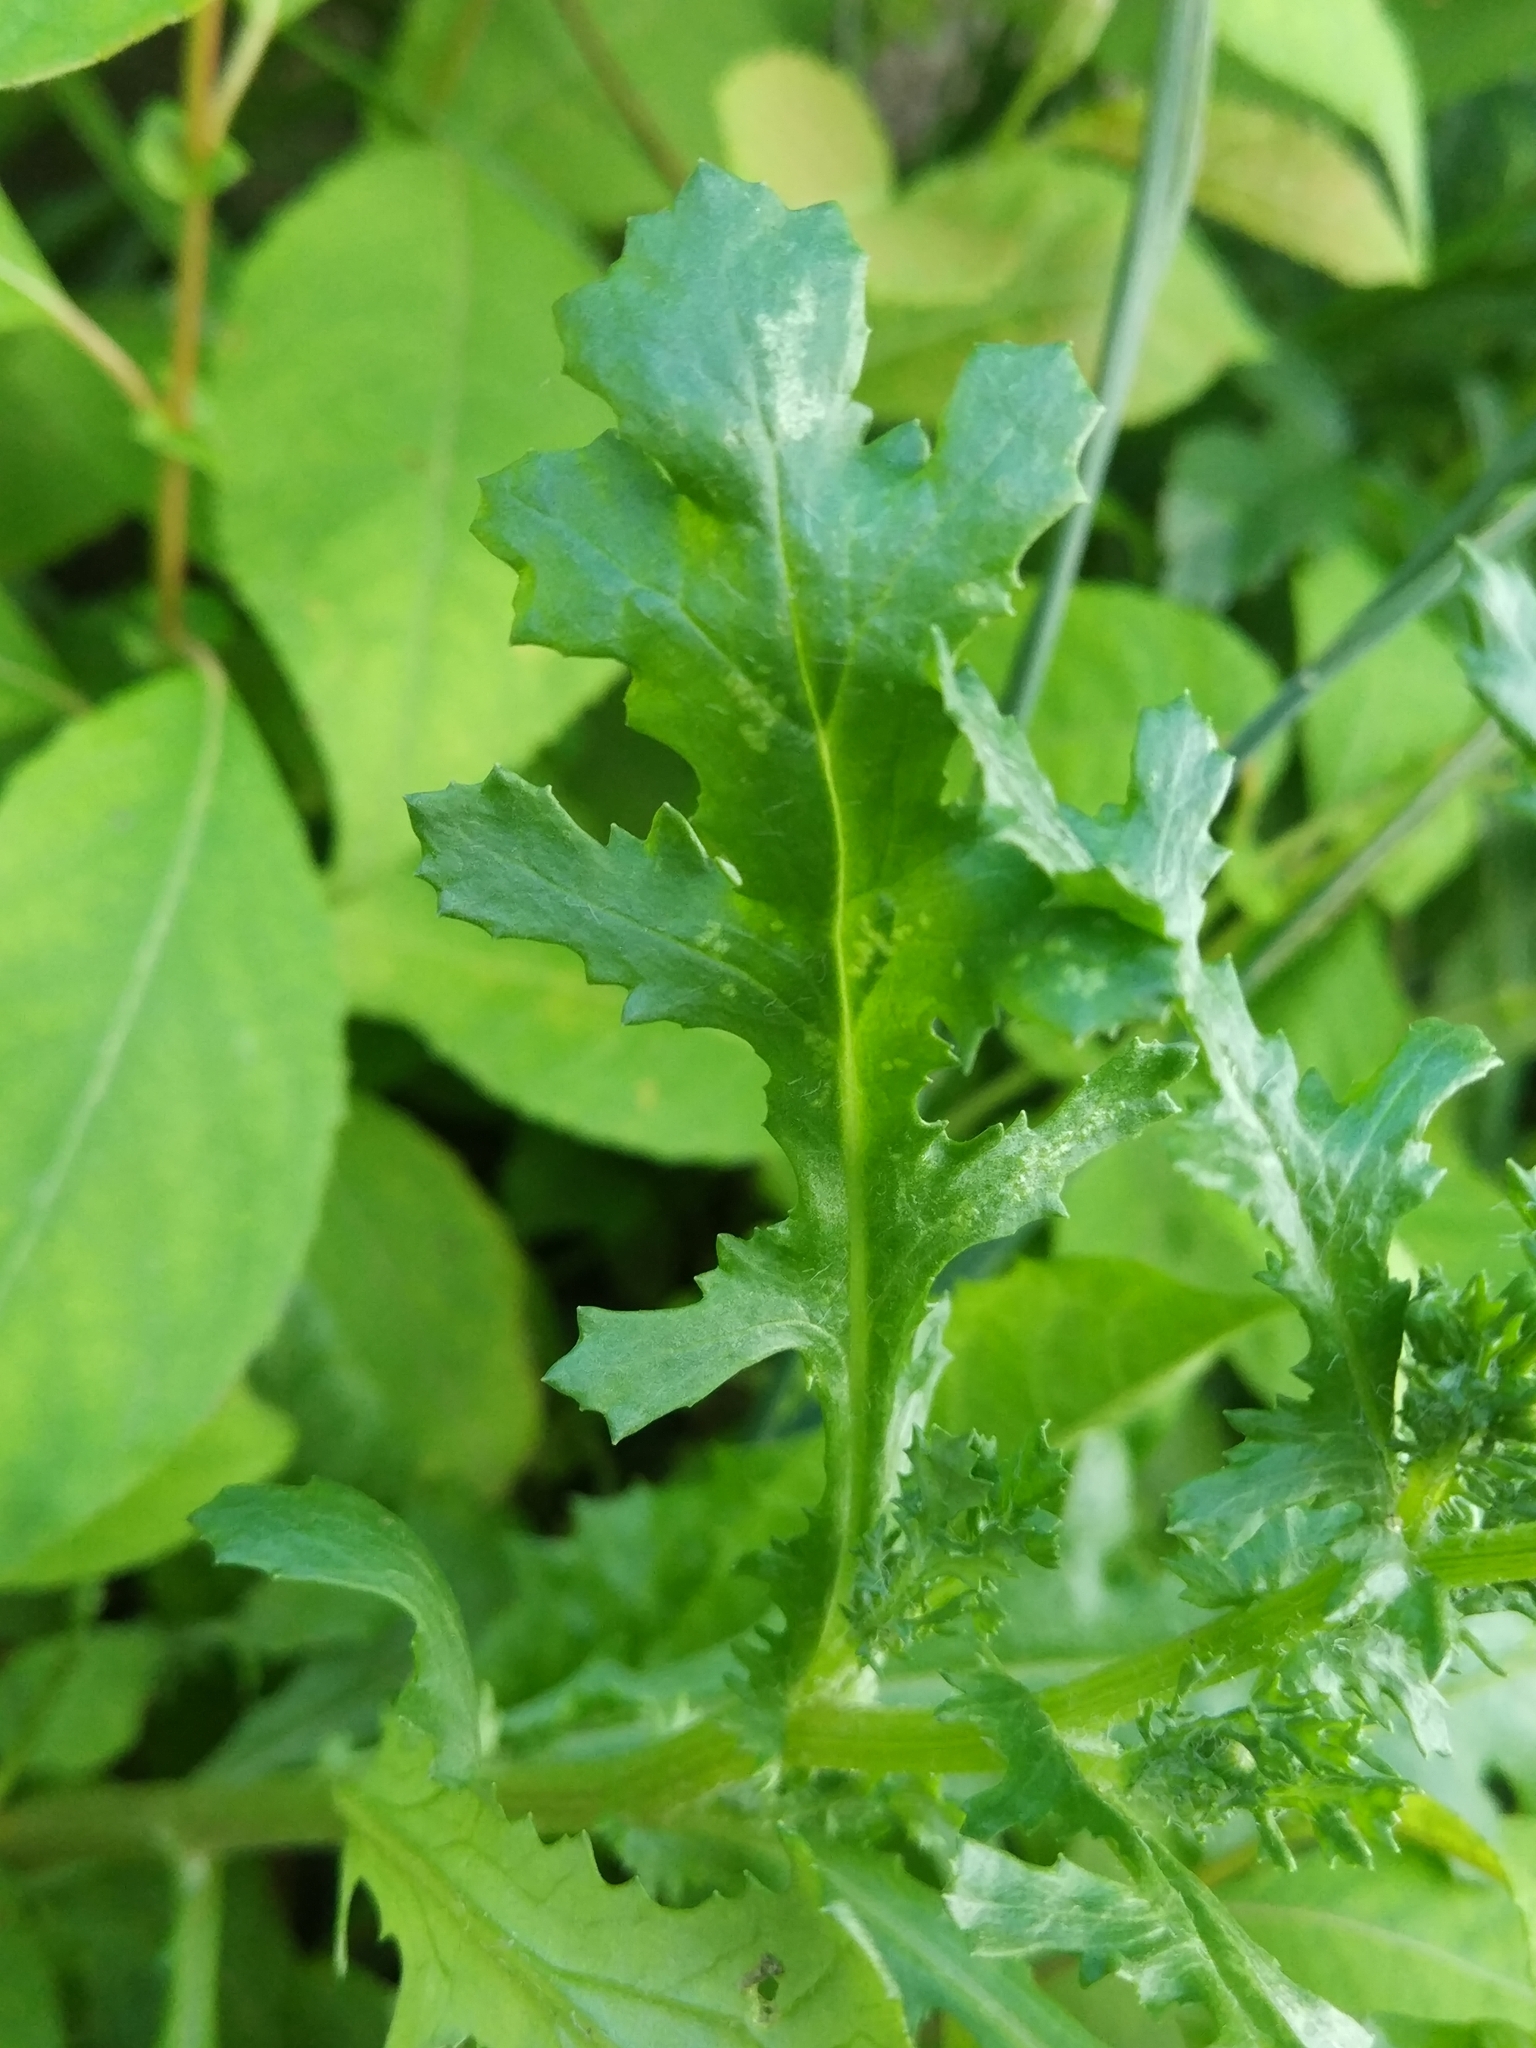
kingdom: Plantae
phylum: Tracheophyta
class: Magnoliopsida
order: Asterales
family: Asteraceae
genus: Senecio
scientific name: Senecio vulgaris
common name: Old-man-in-the-spring
